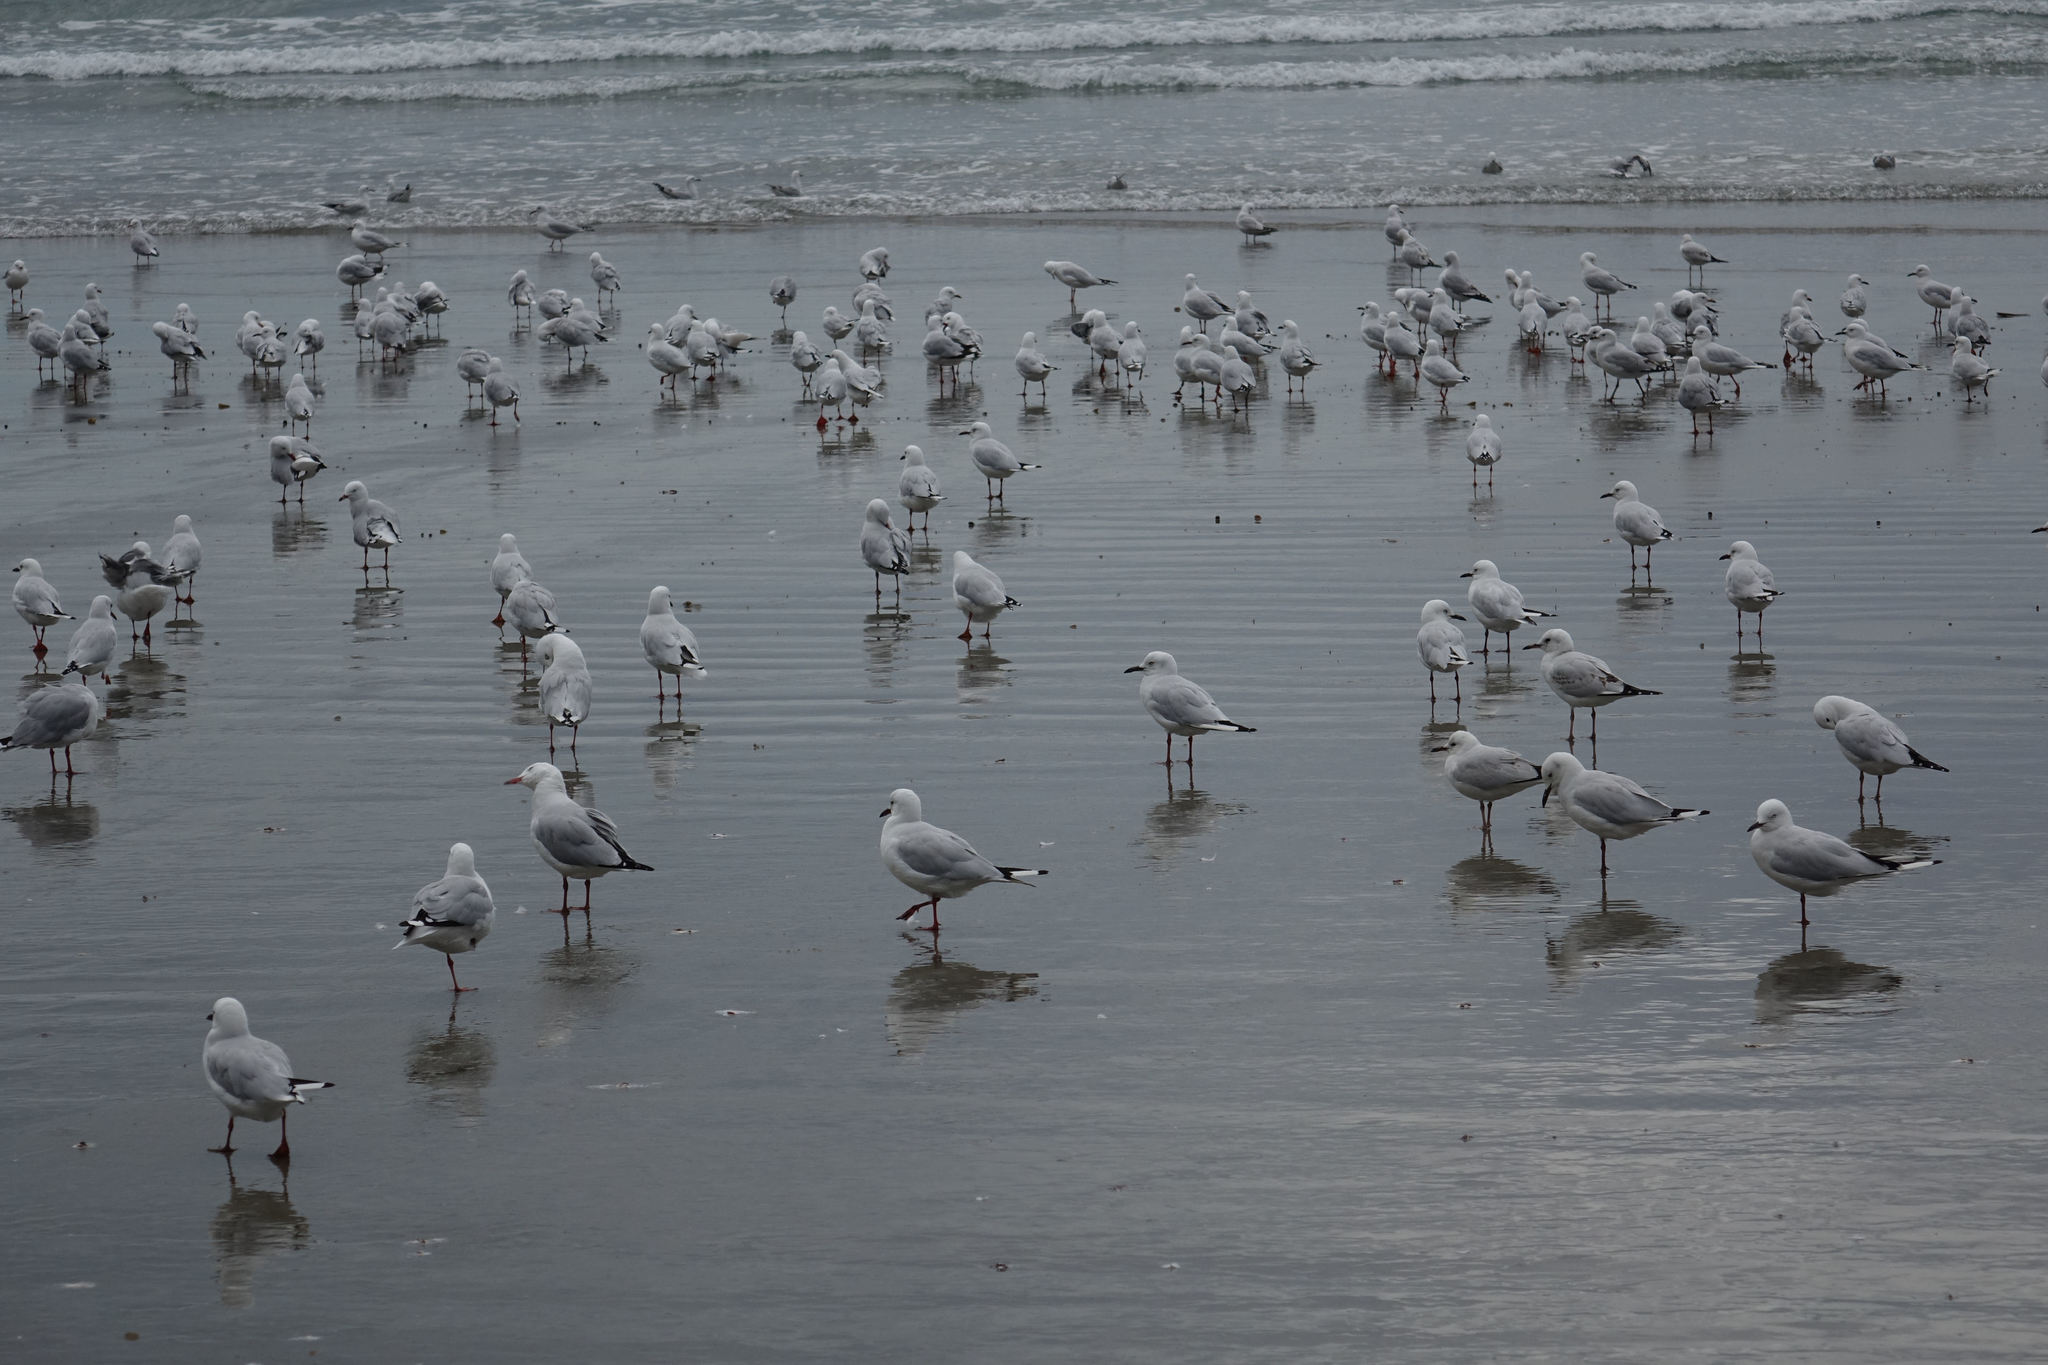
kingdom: Animalia
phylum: Chordata
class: Aves
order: Charadriiformes
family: Laridae
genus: Chroicocephalus
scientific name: Chroicocephalus novaehollandiae
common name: Silver gull
